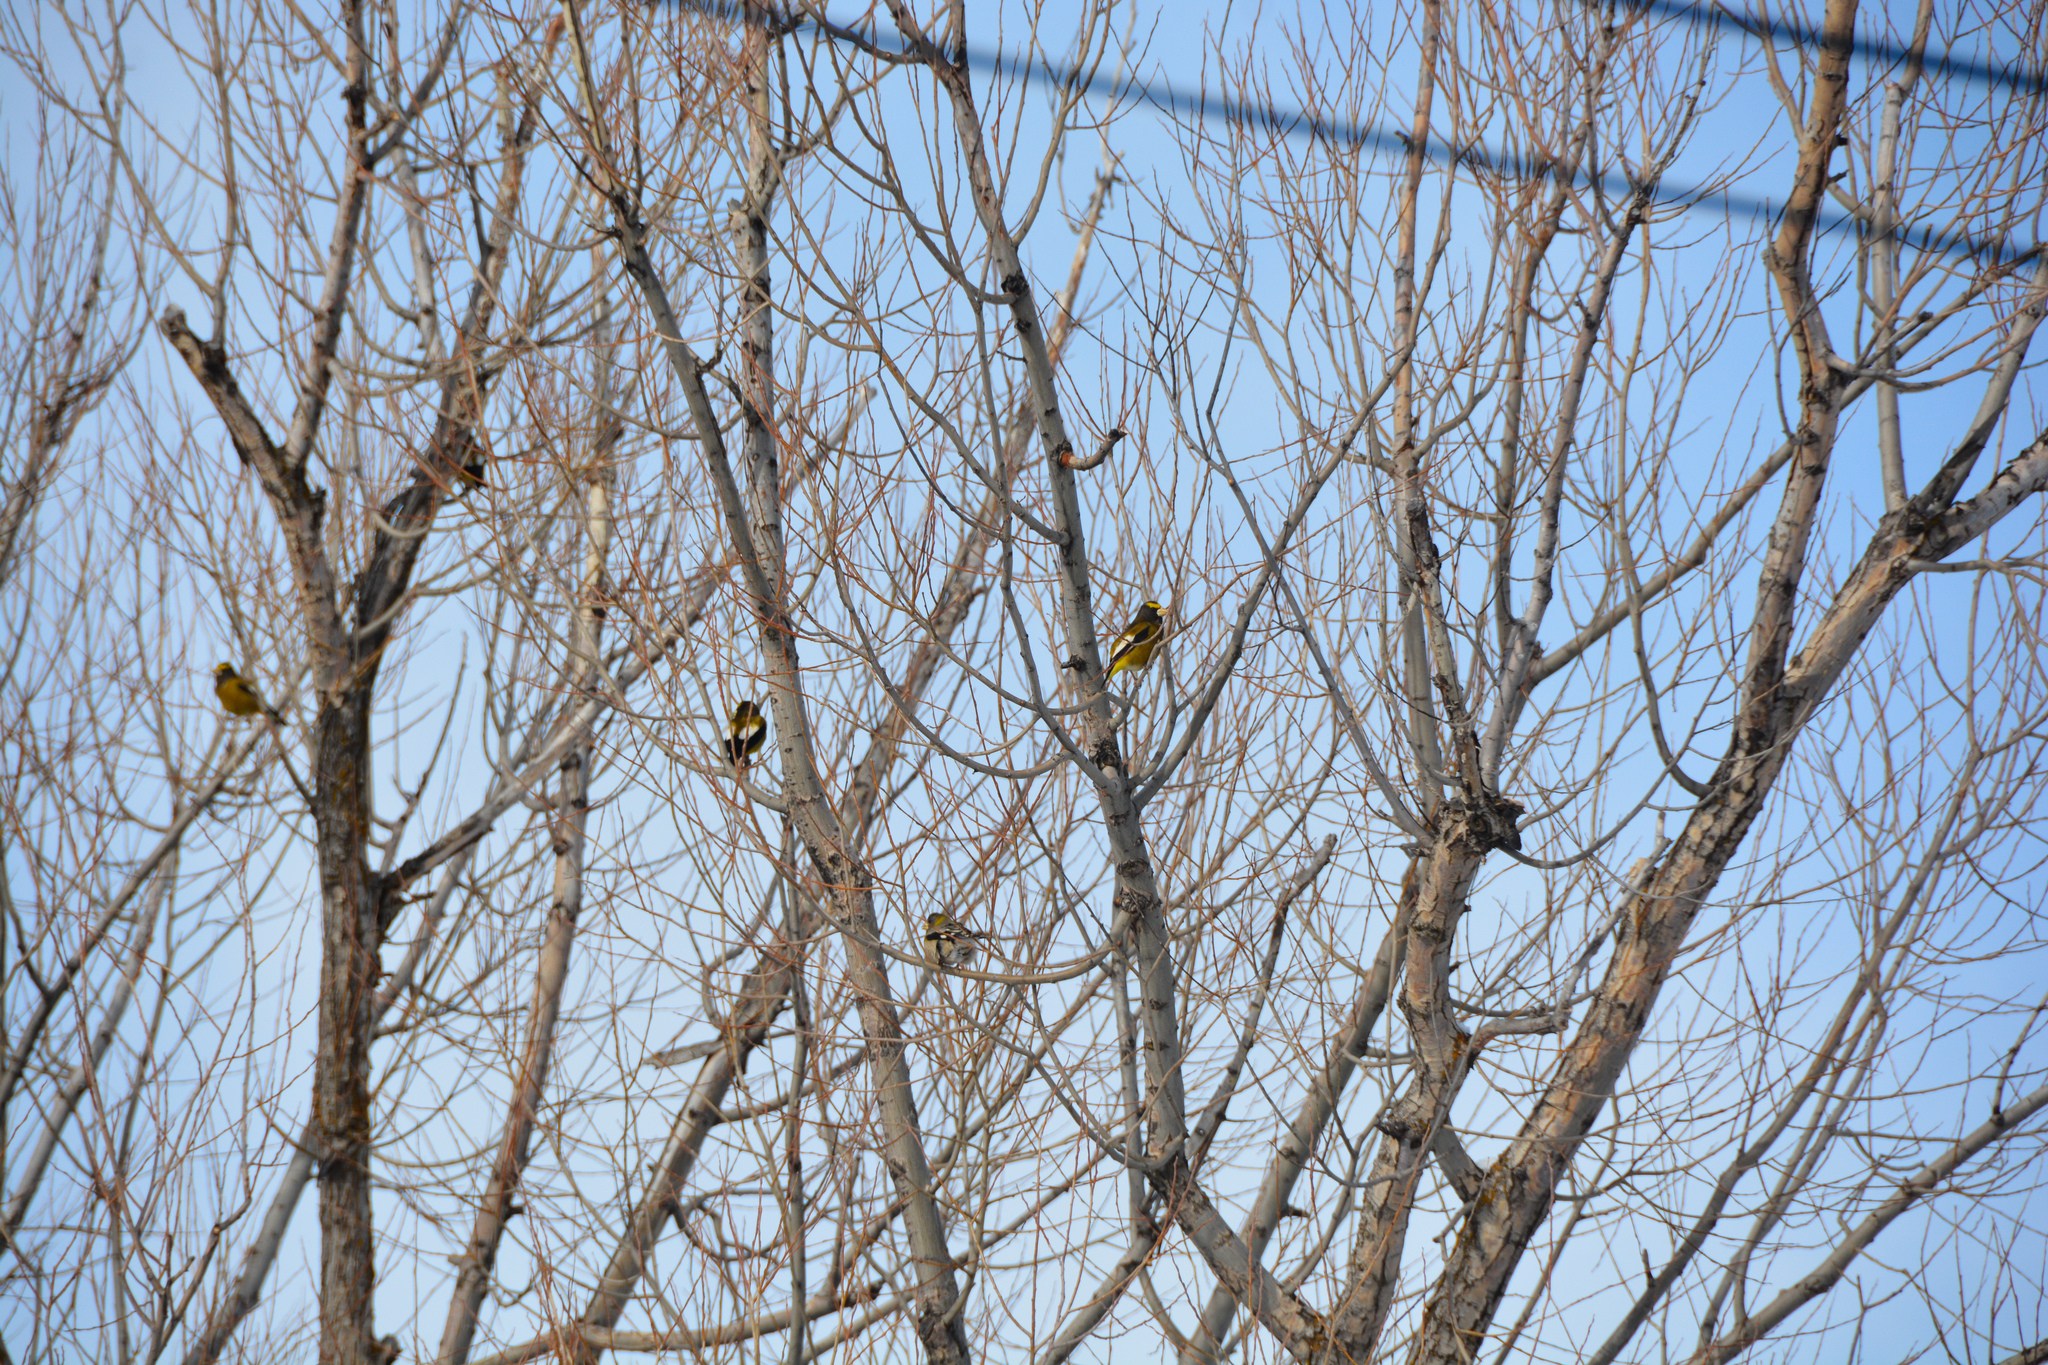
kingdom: Animalia
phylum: Chordata
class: Aves
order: Passeriformes
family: Fringillidae
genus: Hesperiphona
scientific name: Hesperiphona vespertina
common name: Evening grosbeak
